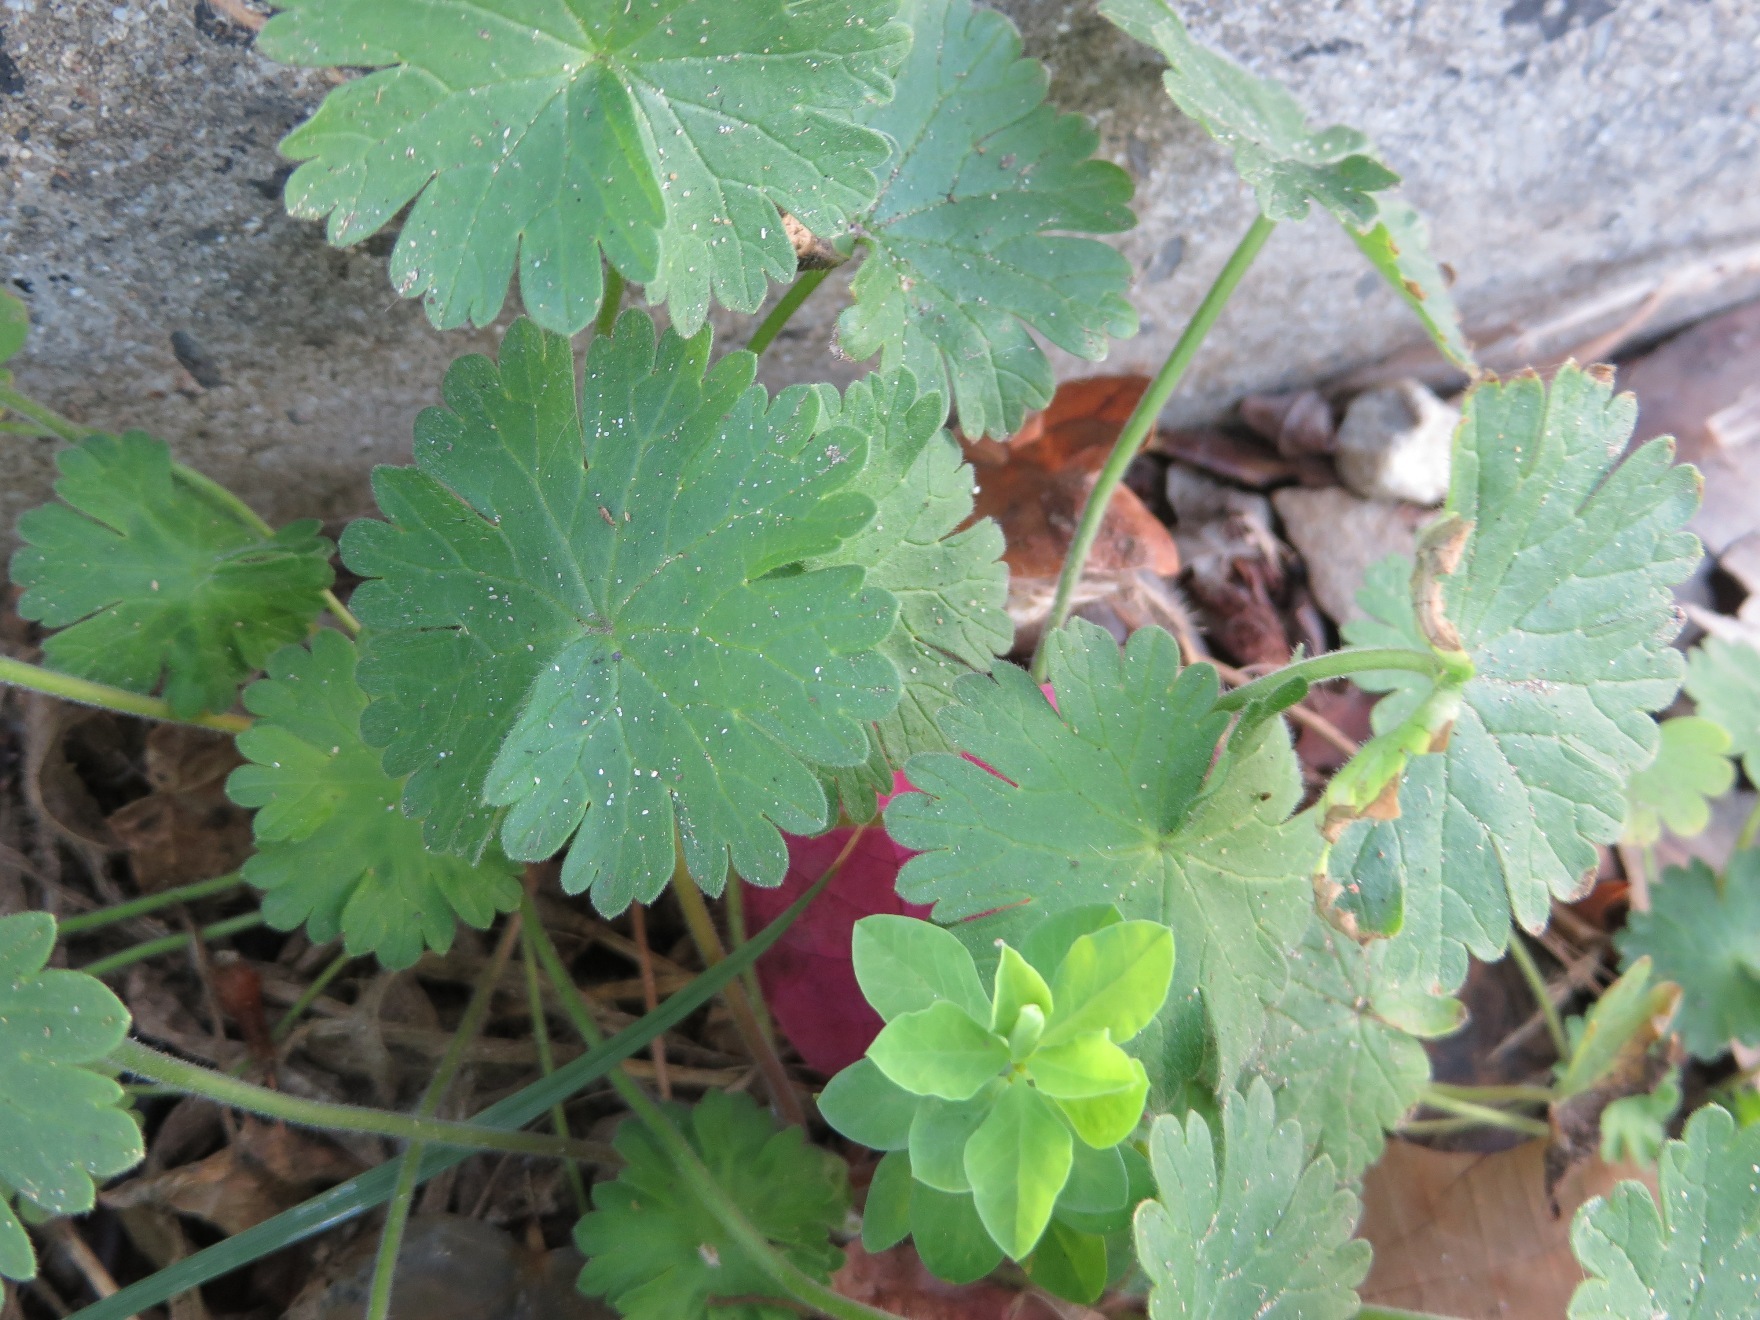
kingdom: Plantae
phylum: Tracheophyta
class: Magnoliopsida
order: Geraniales
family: Geraniaceae
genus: Geranium
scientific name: Geranium molle
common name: Dove's-foot crane's-bill
